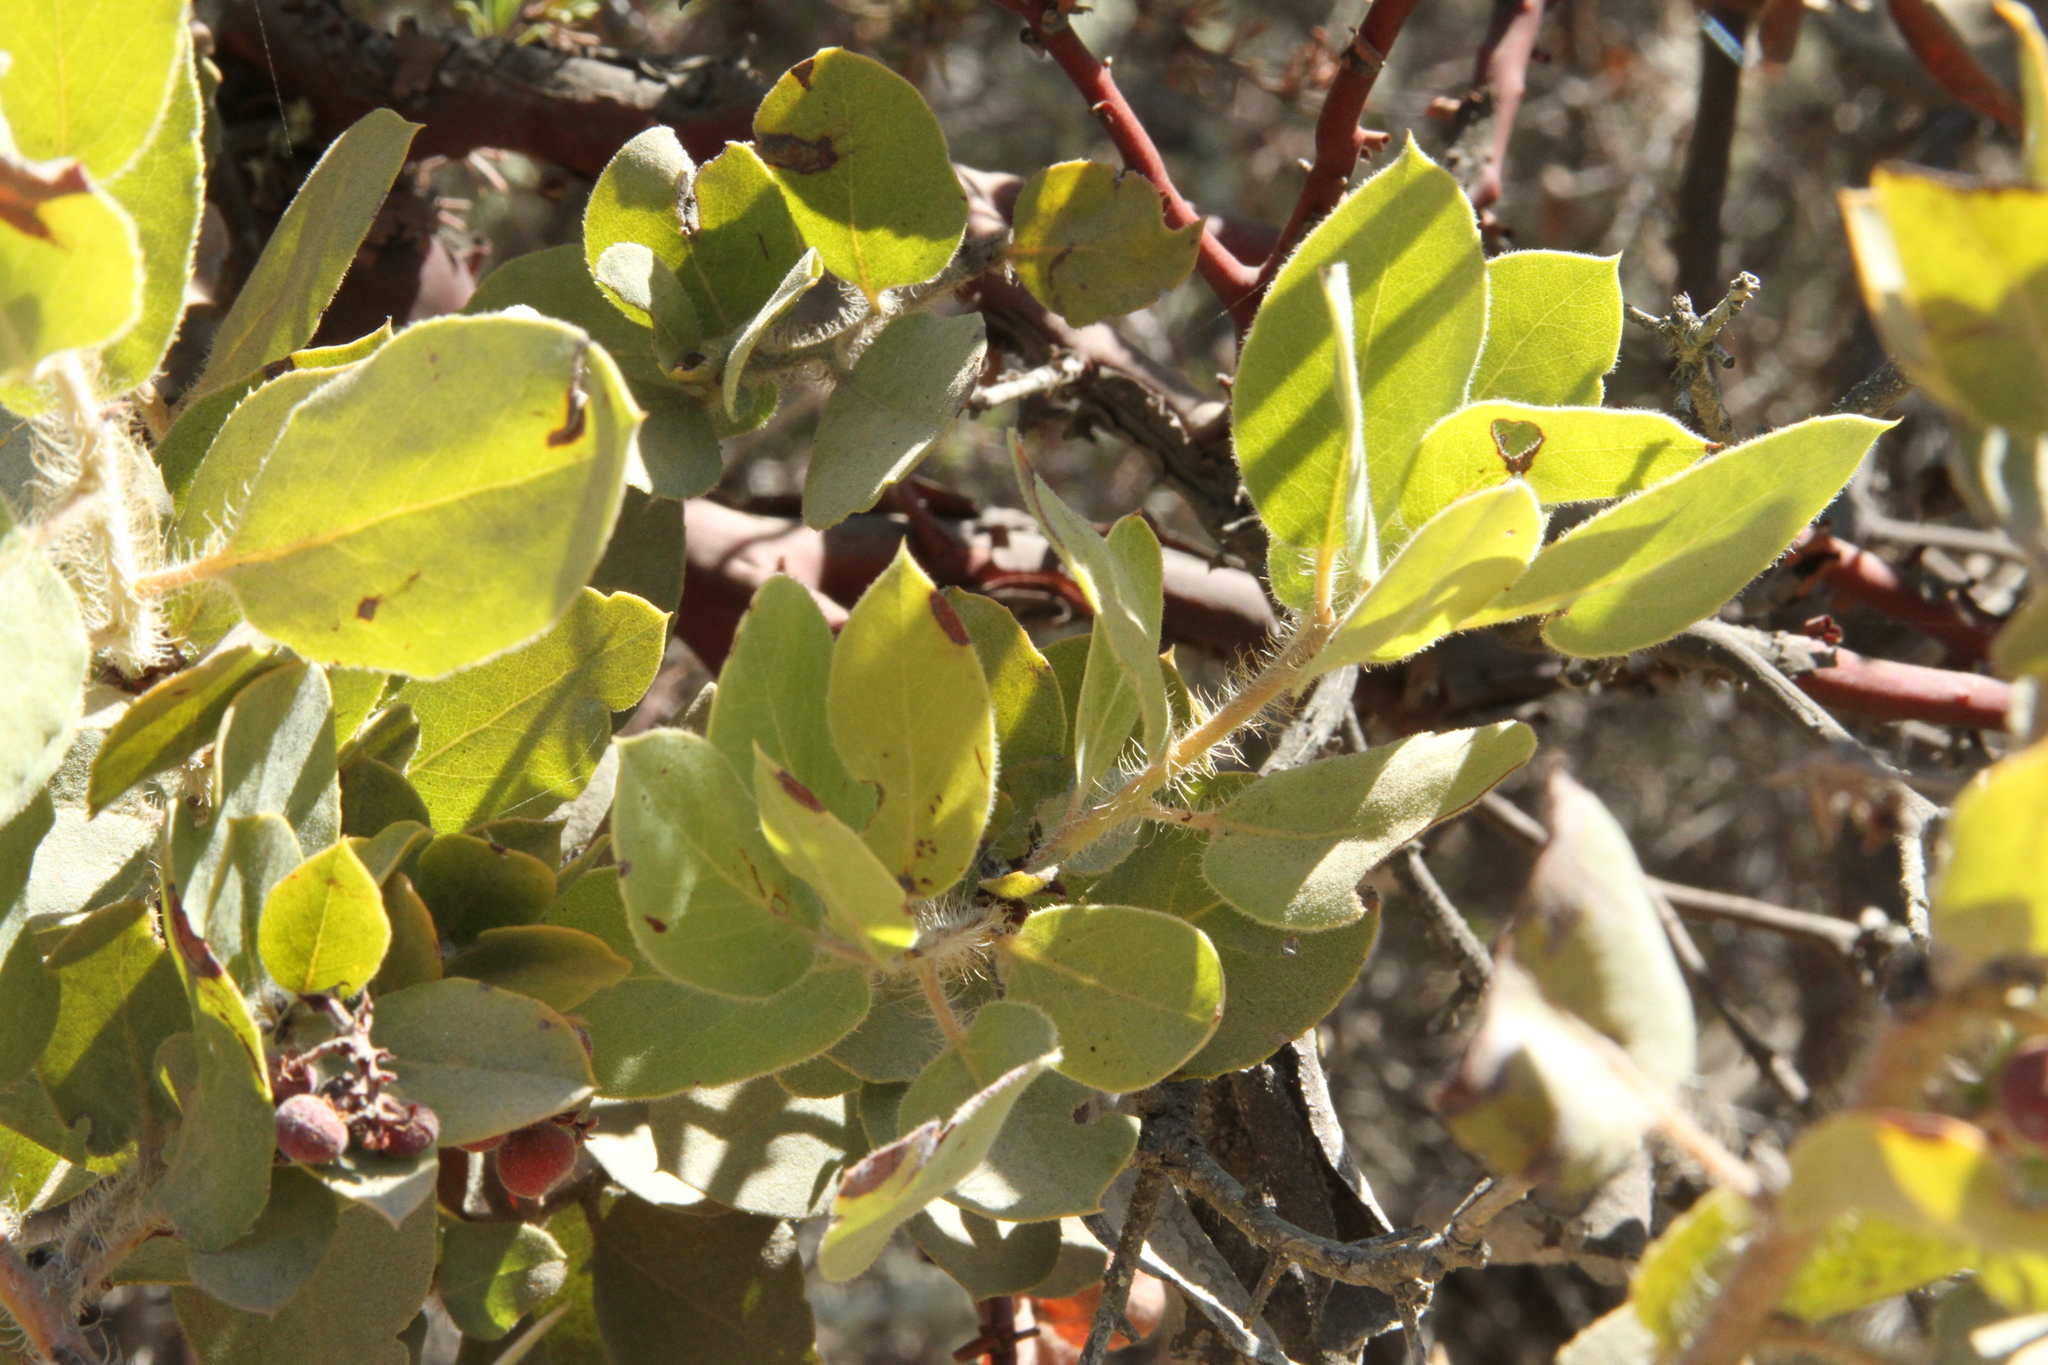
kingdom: Plantae
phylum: Tracheophyta
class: Magnoliopsida
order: Ericales
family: Ericaceae
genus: Arctostaphylos
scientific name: Arctostaphylos crustacea
